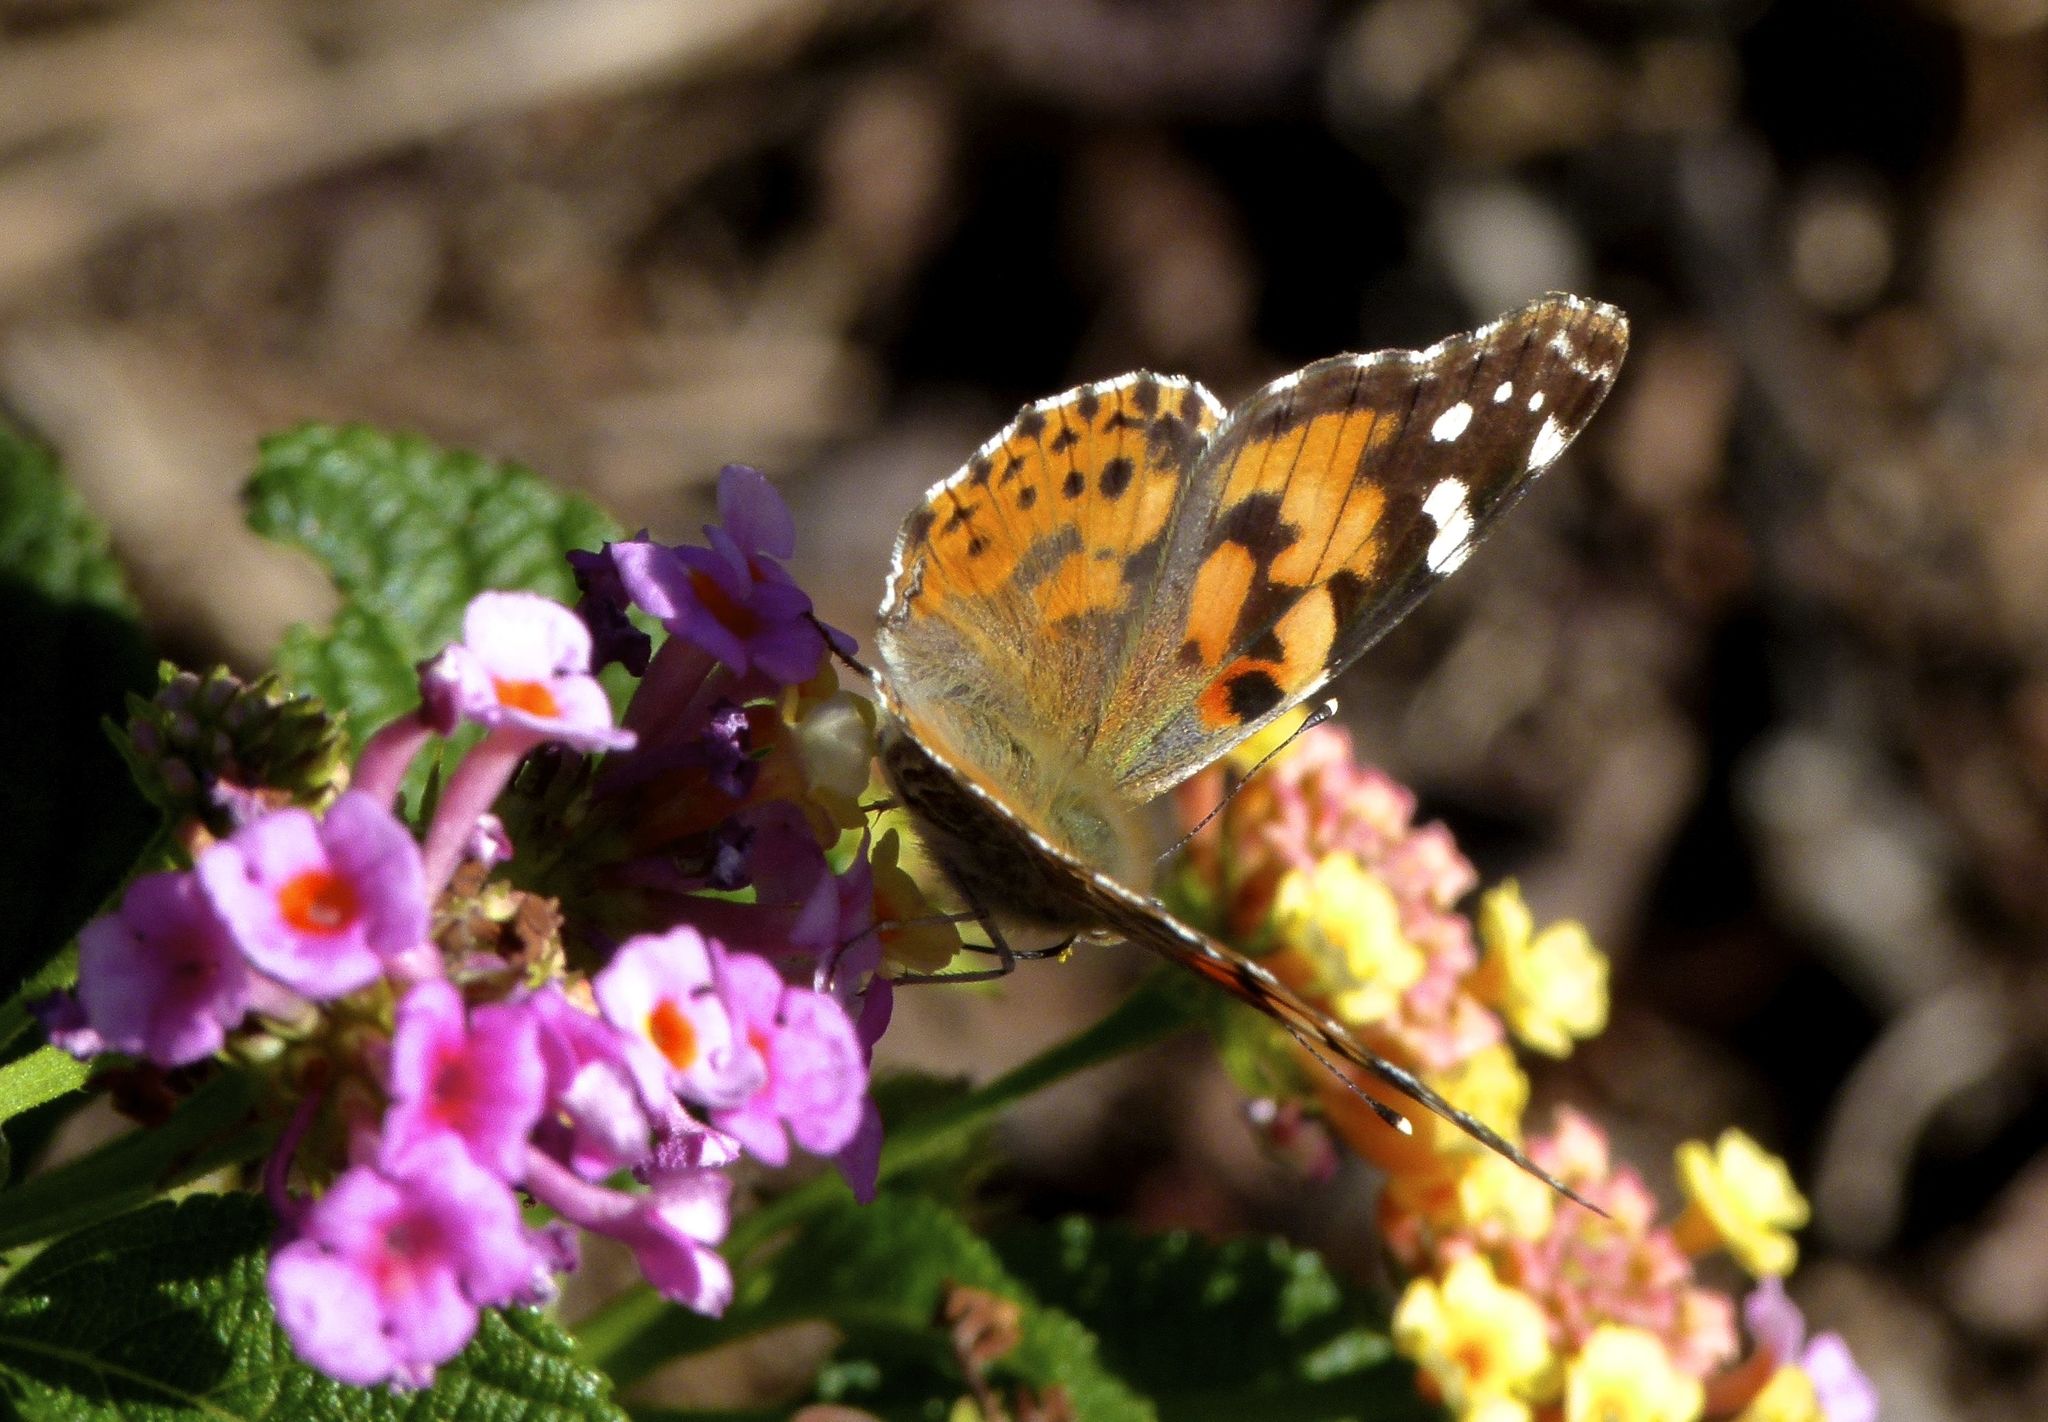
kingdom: Animalia
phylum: Arthropoda
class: Insecta
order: Lepidoptera
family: Nymphalidae
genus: Vanessa
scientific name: Vanessa cardui
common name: Painted lady
